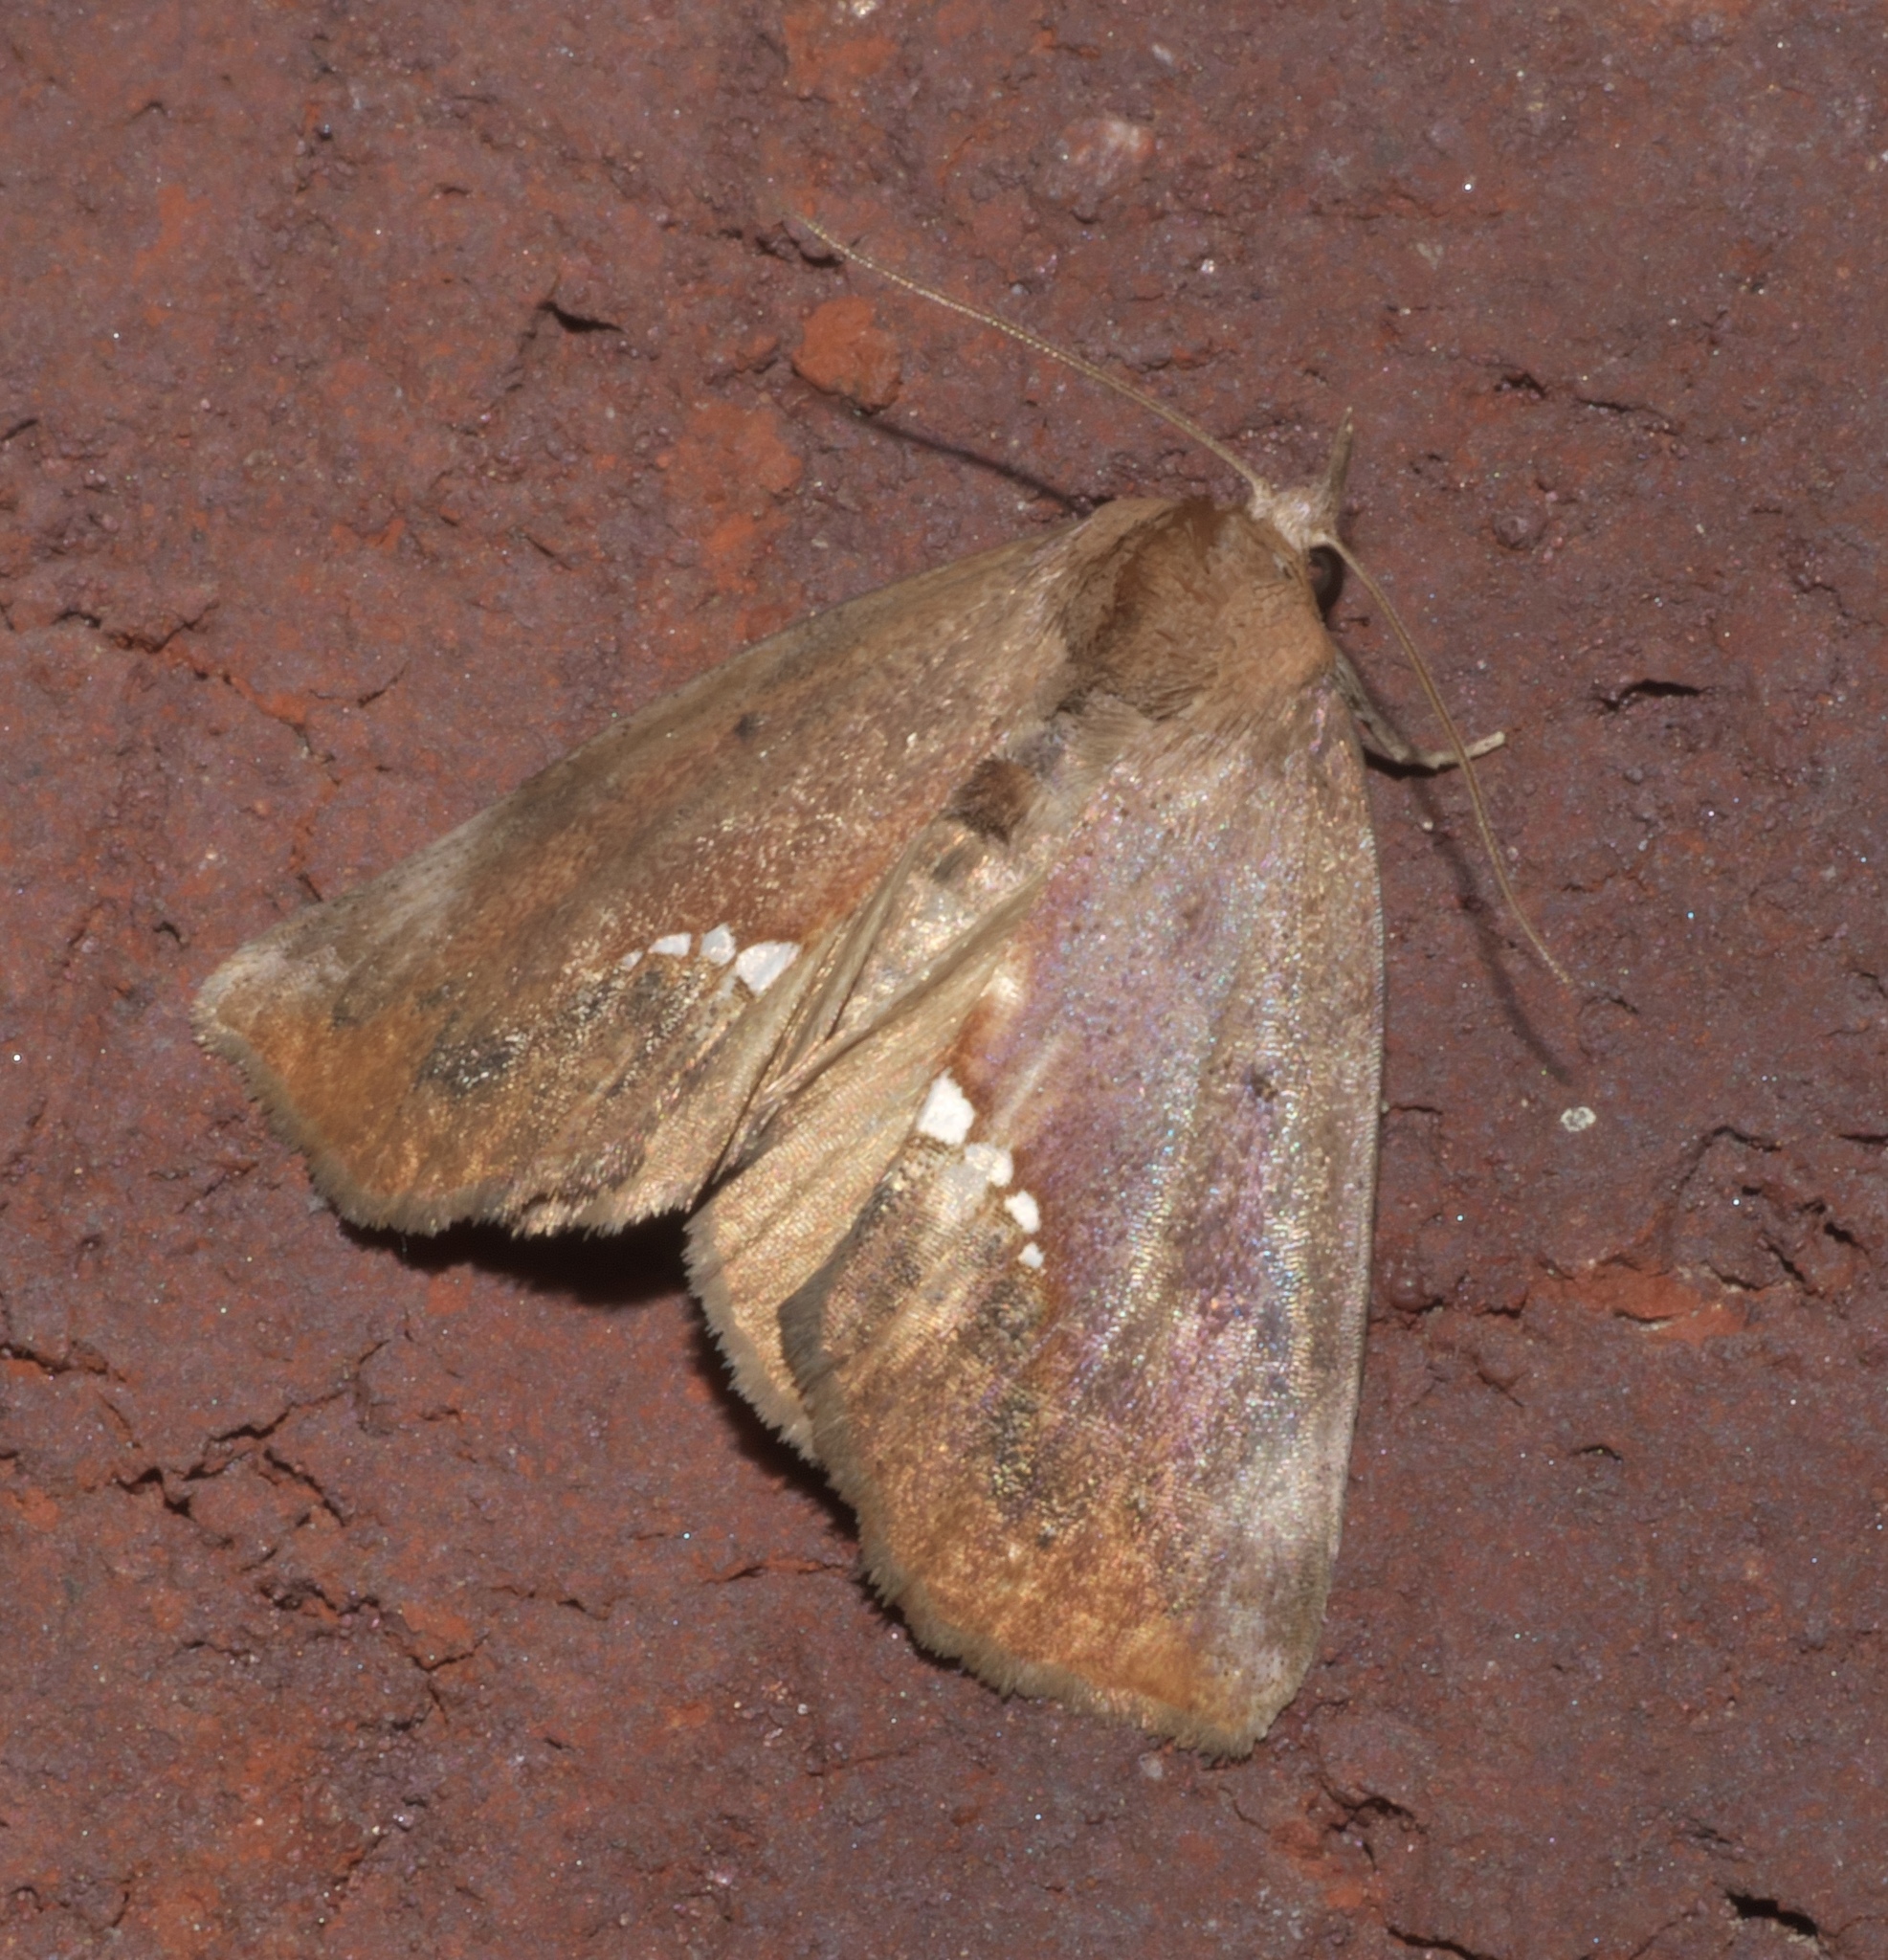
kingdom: Animalia
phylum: Arthropoda
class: Insecta
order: Lepidoptera
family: Erebidae
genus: Hypsoropha
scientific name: Hypsoropha hormos
